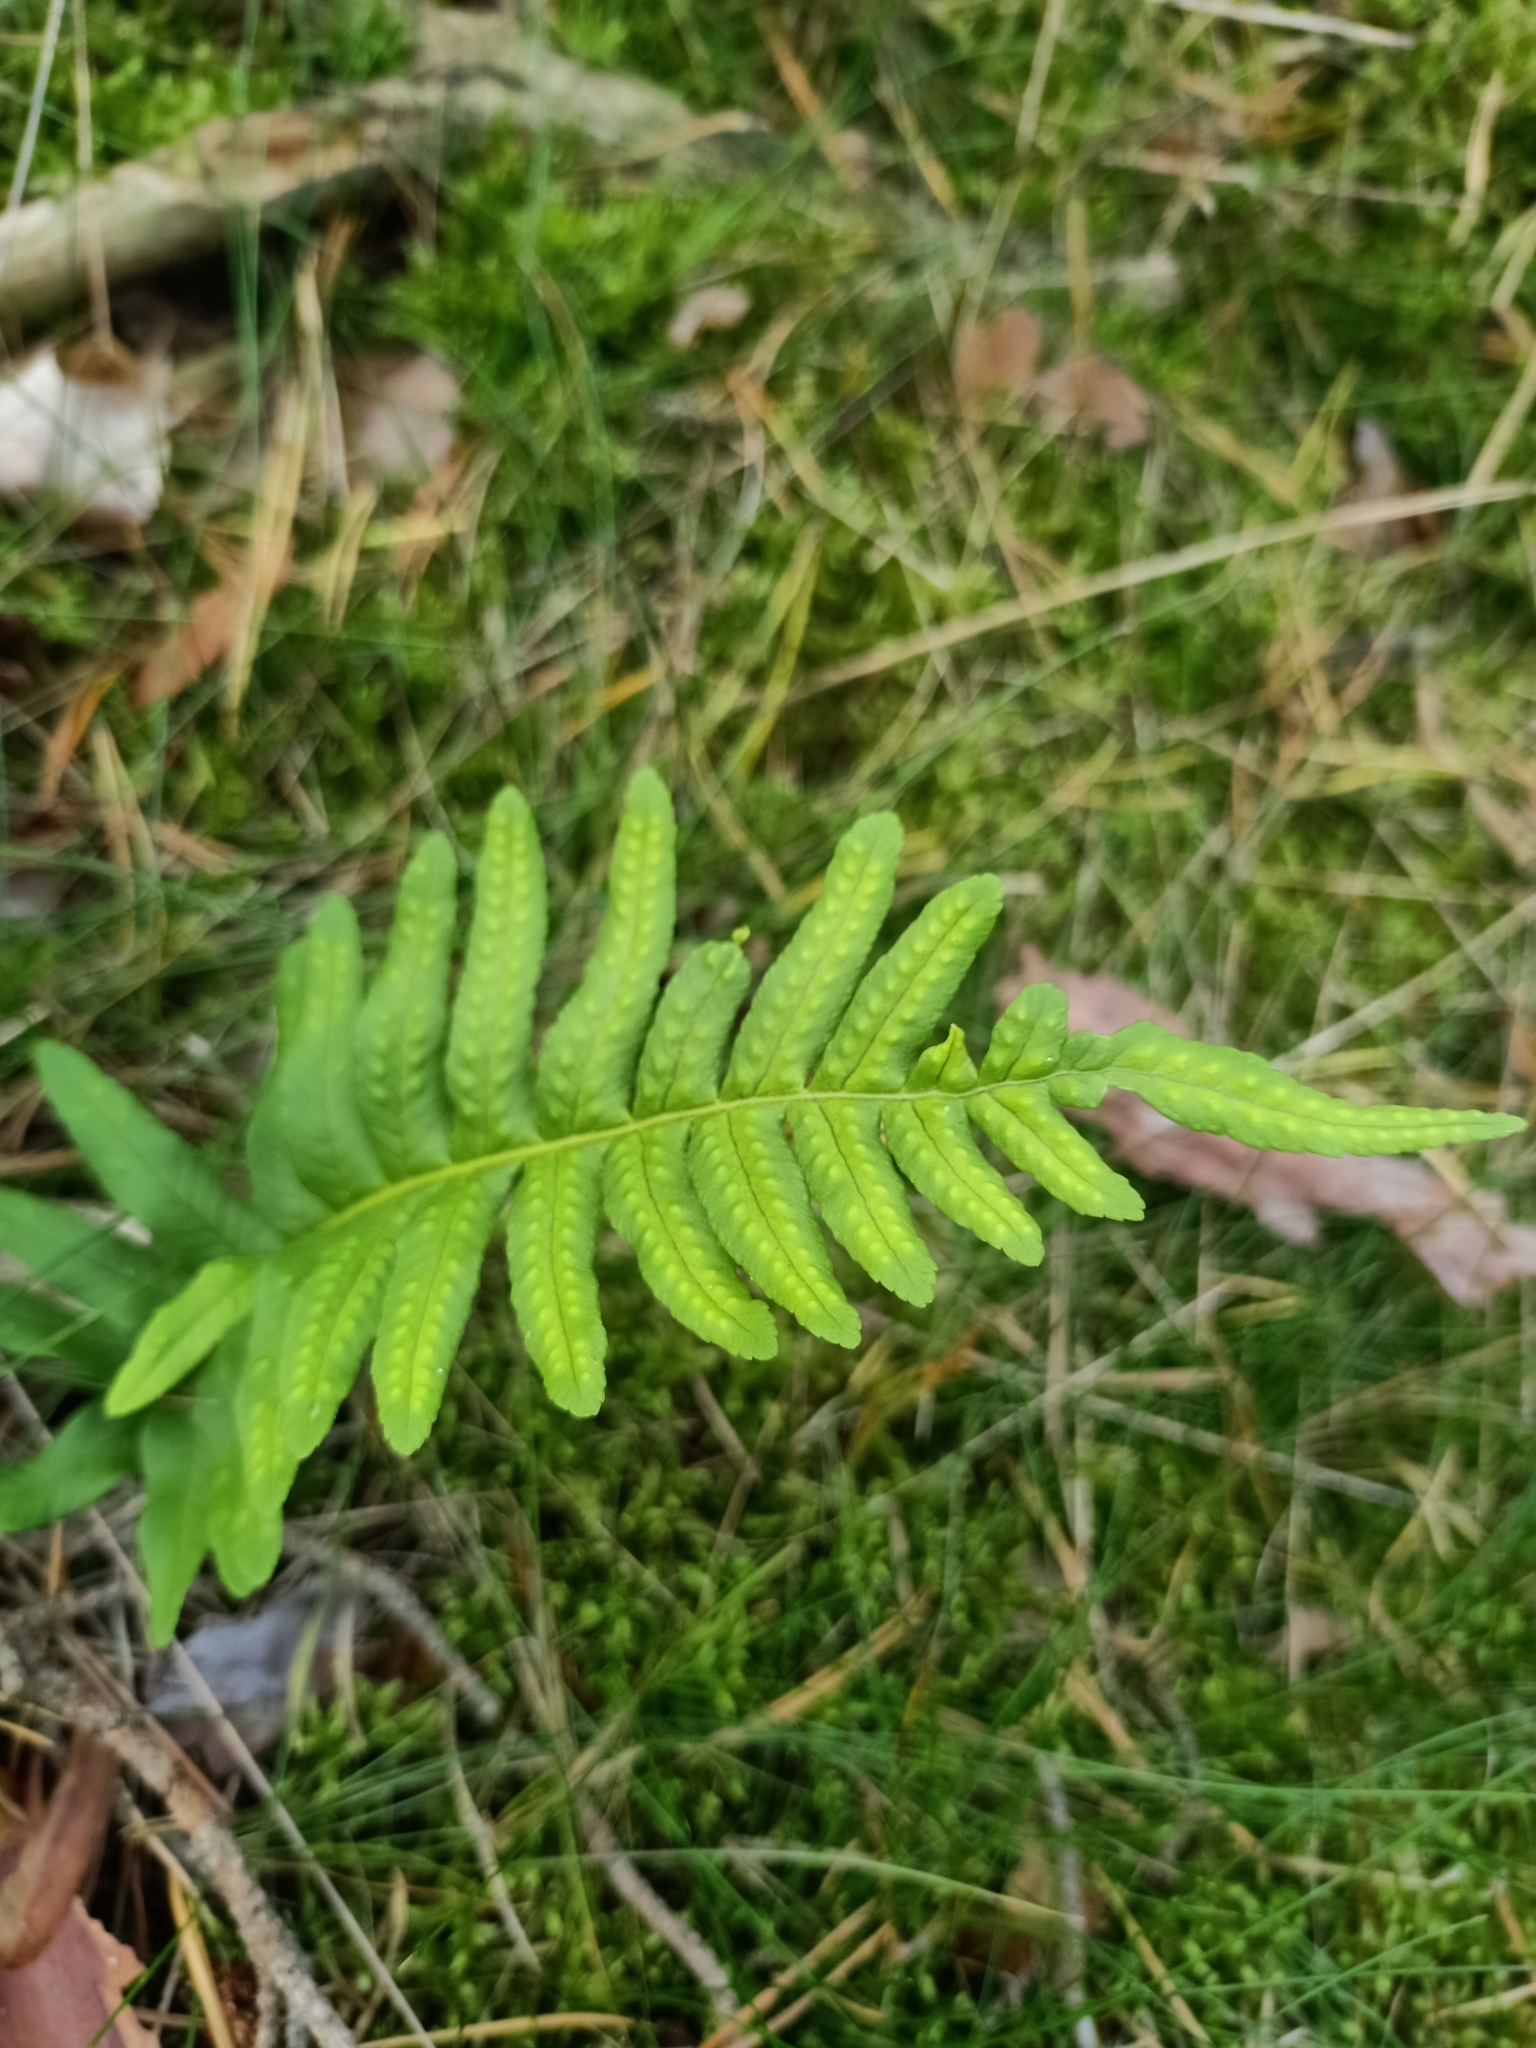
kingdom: Plantae
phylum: Tracheophyta
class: Polypodiopsida
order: Polypodiales
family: Polypodiaceae
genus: Polypodium
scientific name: Polypodium vulgare
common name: Common polypody
